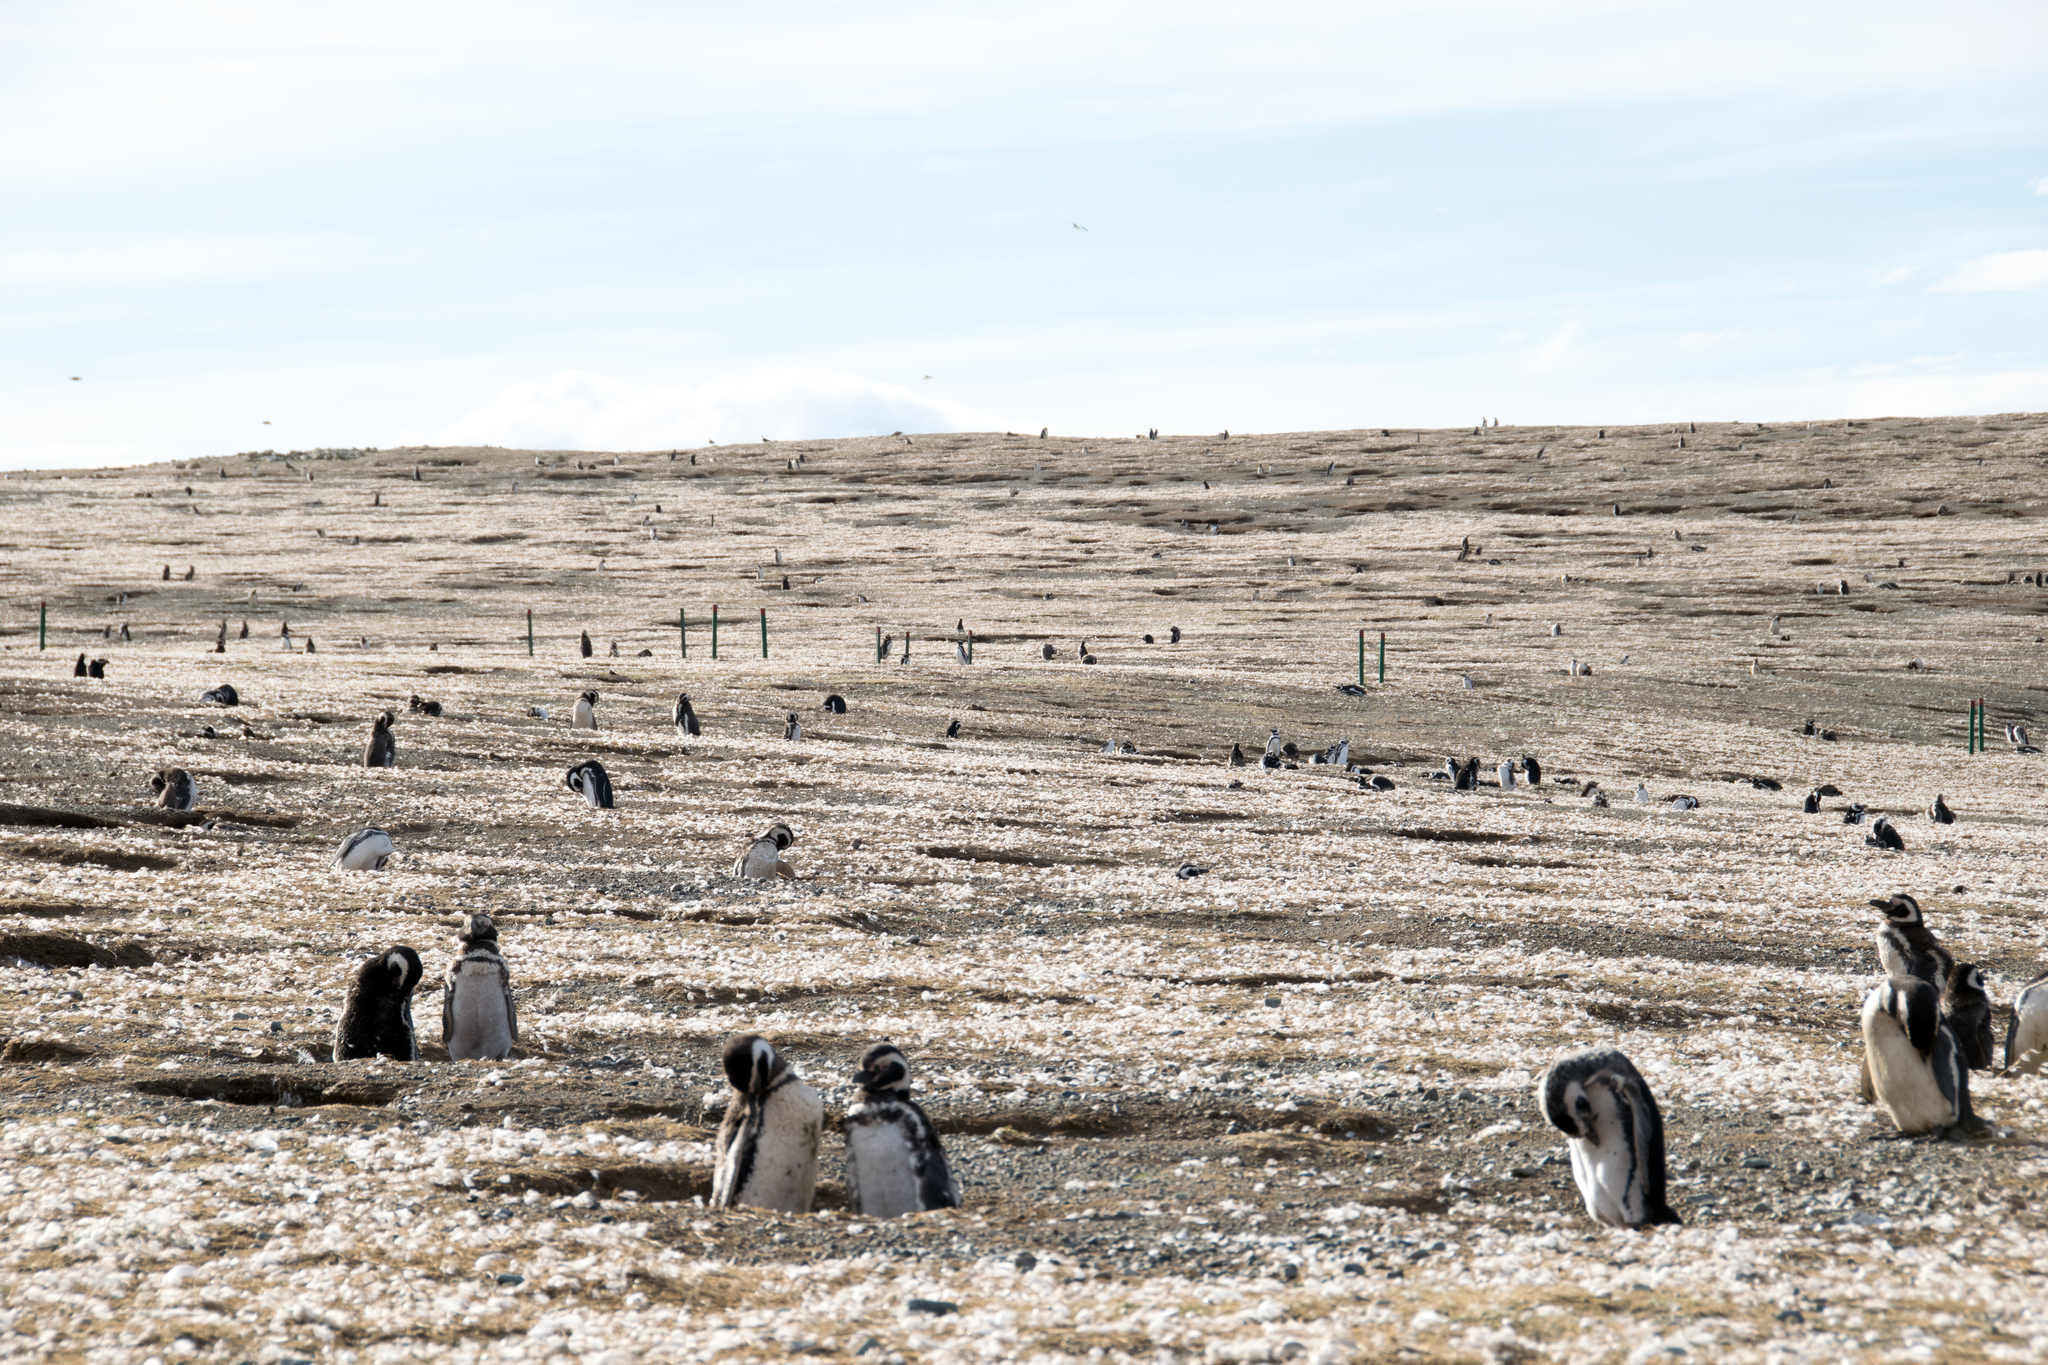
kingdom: Animalia
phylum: Chordata
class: Aves
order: Sphenisciformes
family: Spheniscidae
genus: Spheniscus
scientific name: Spheniscus magellanicus
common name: Magellanic penguin
